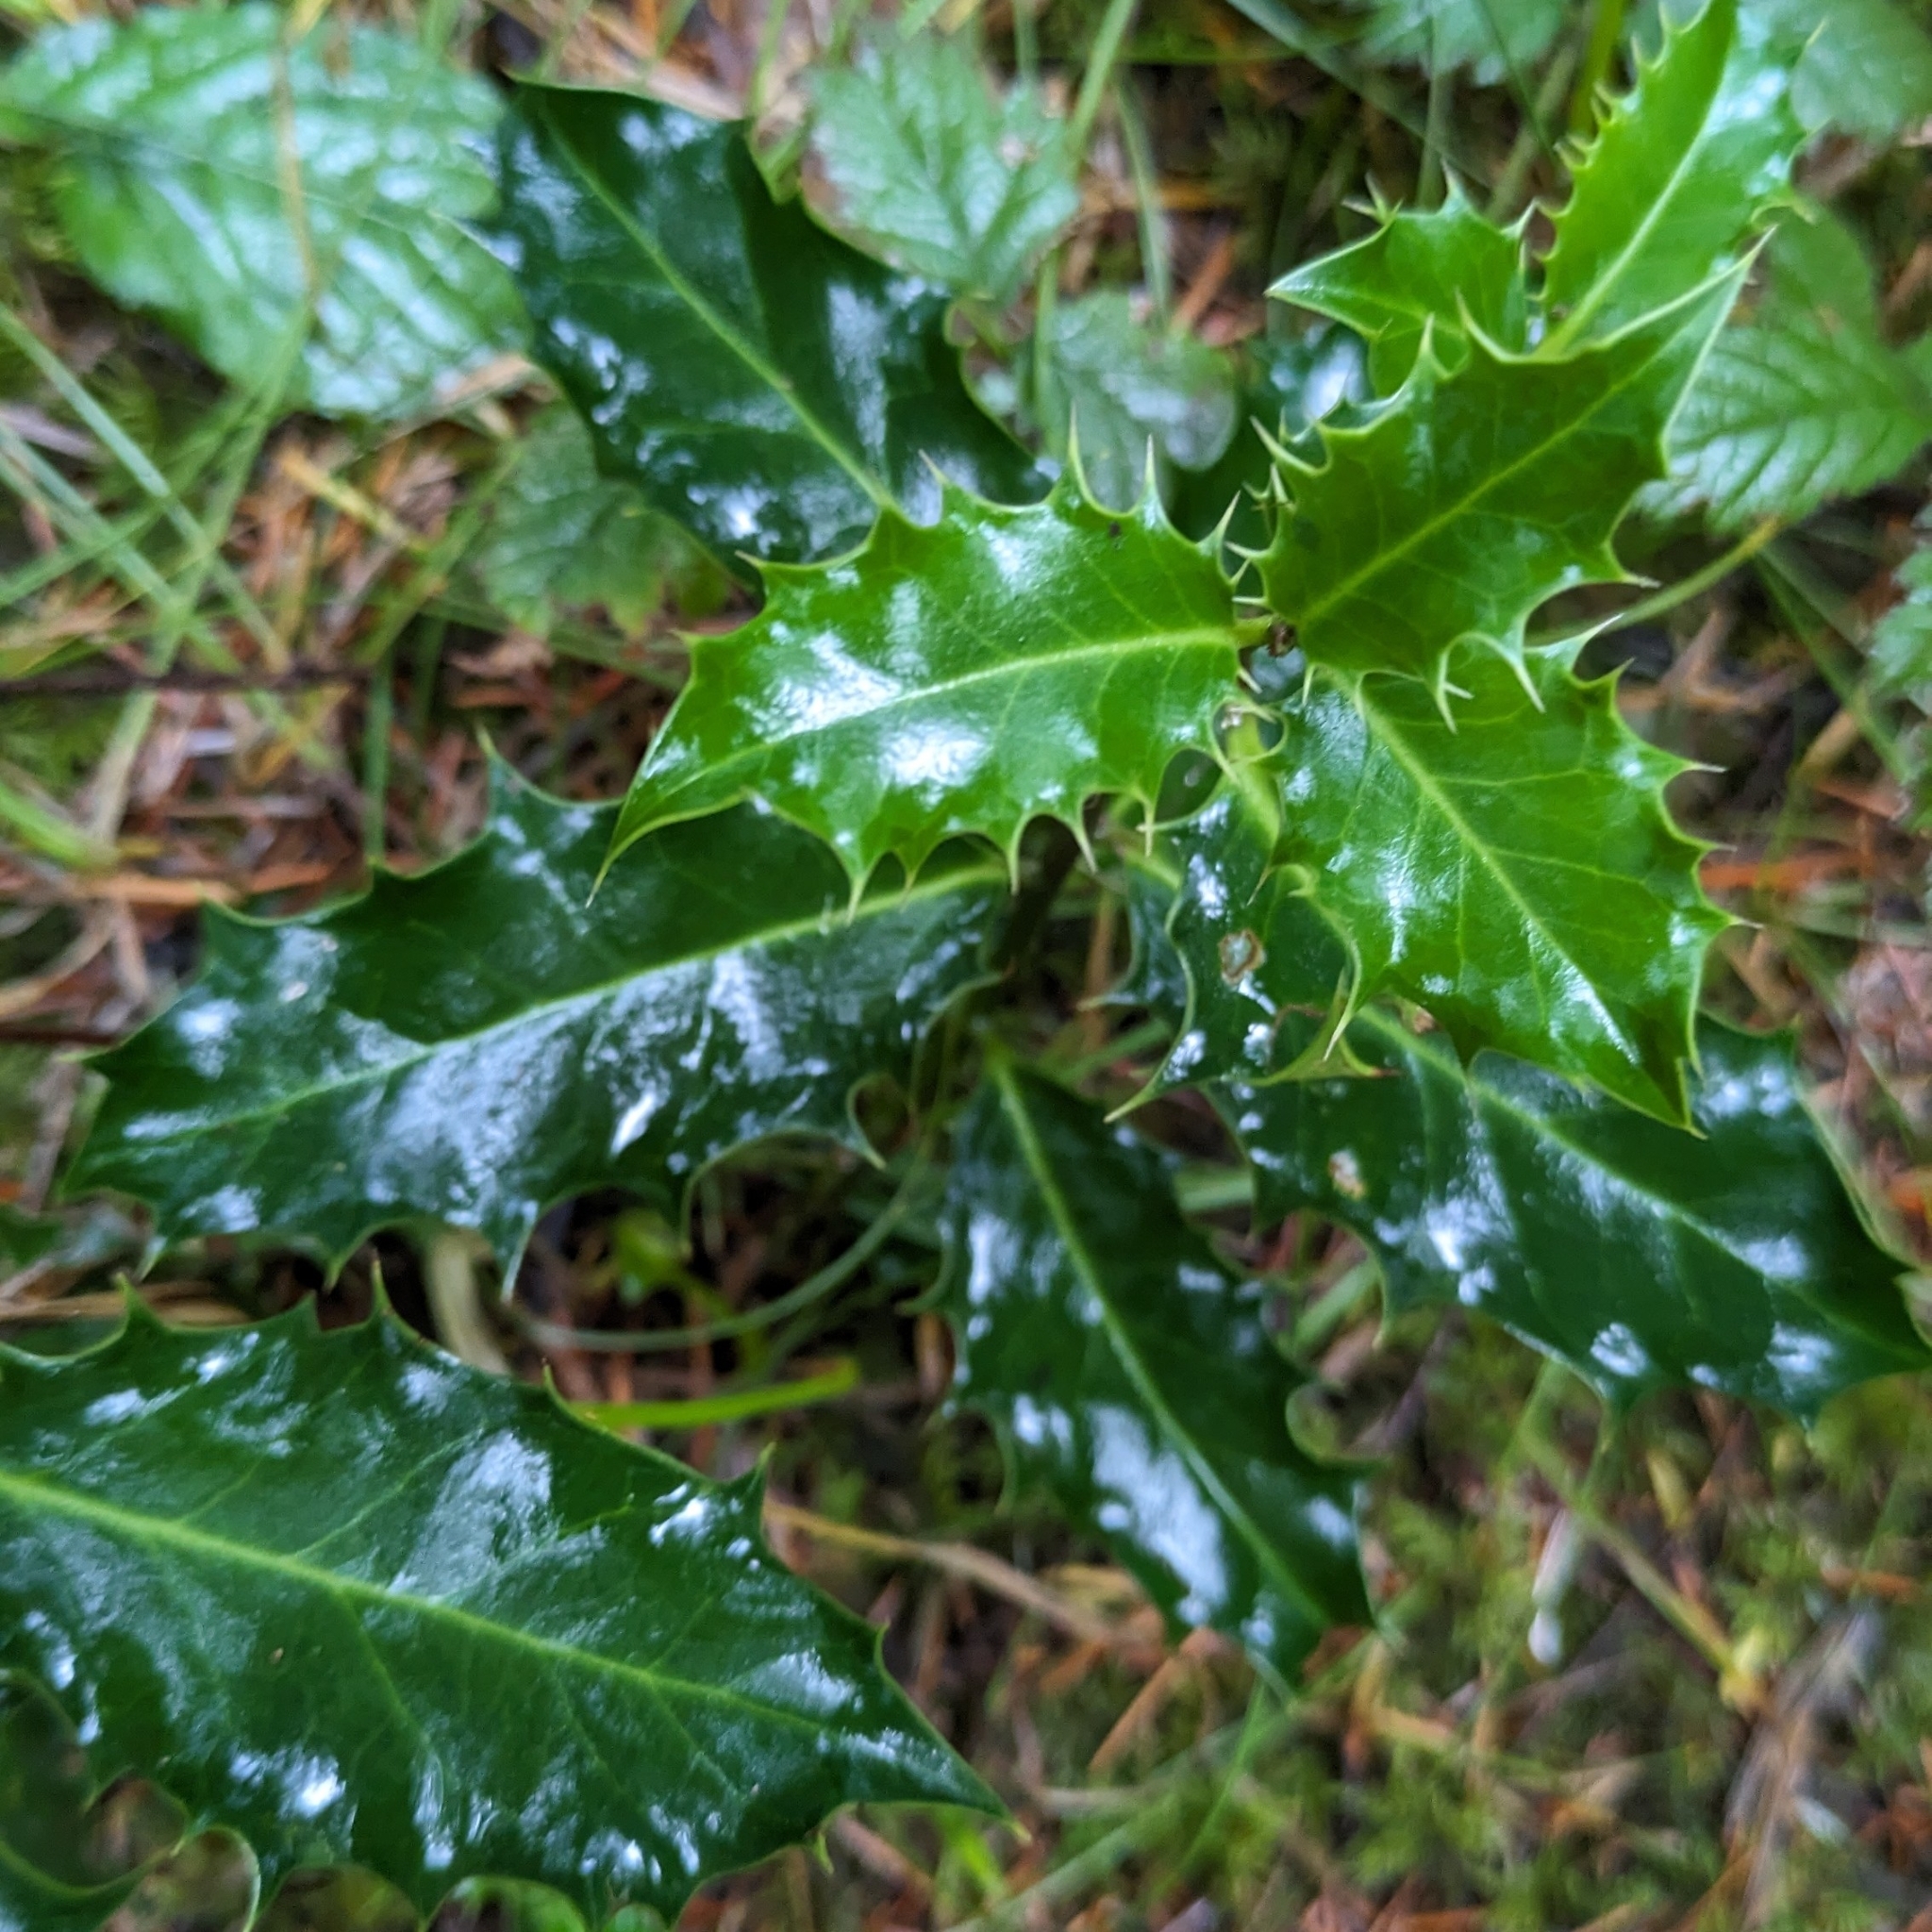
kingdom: Plantae
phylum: Tracheophyta
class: Magnoliopsida
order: Aquifoliales
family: Aquifoliaceae
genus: Ilex
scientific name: Ilex aquifolium
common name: English holly
